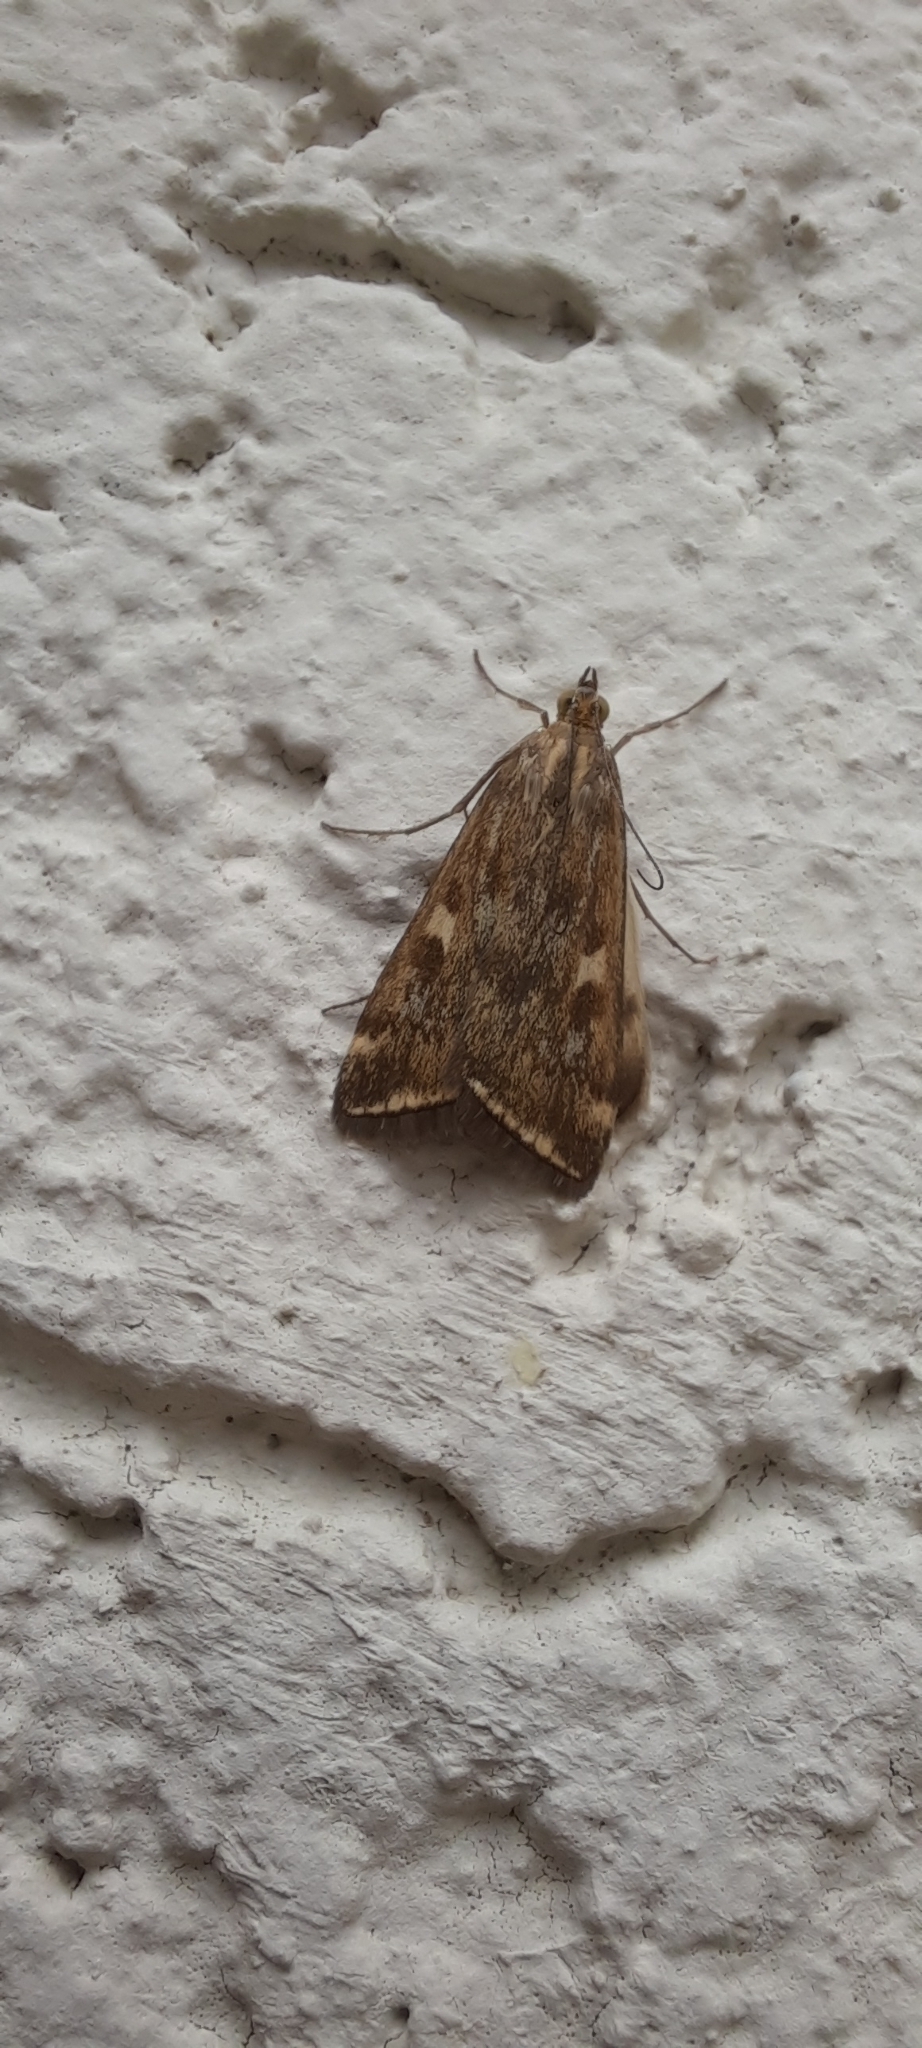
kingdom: Animalia
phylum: Arthropoda
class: Insecta
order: Lepidoptera
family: Crambidae
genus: Loxostege
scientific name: Loxostege sticticalis
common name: Crambid moth
